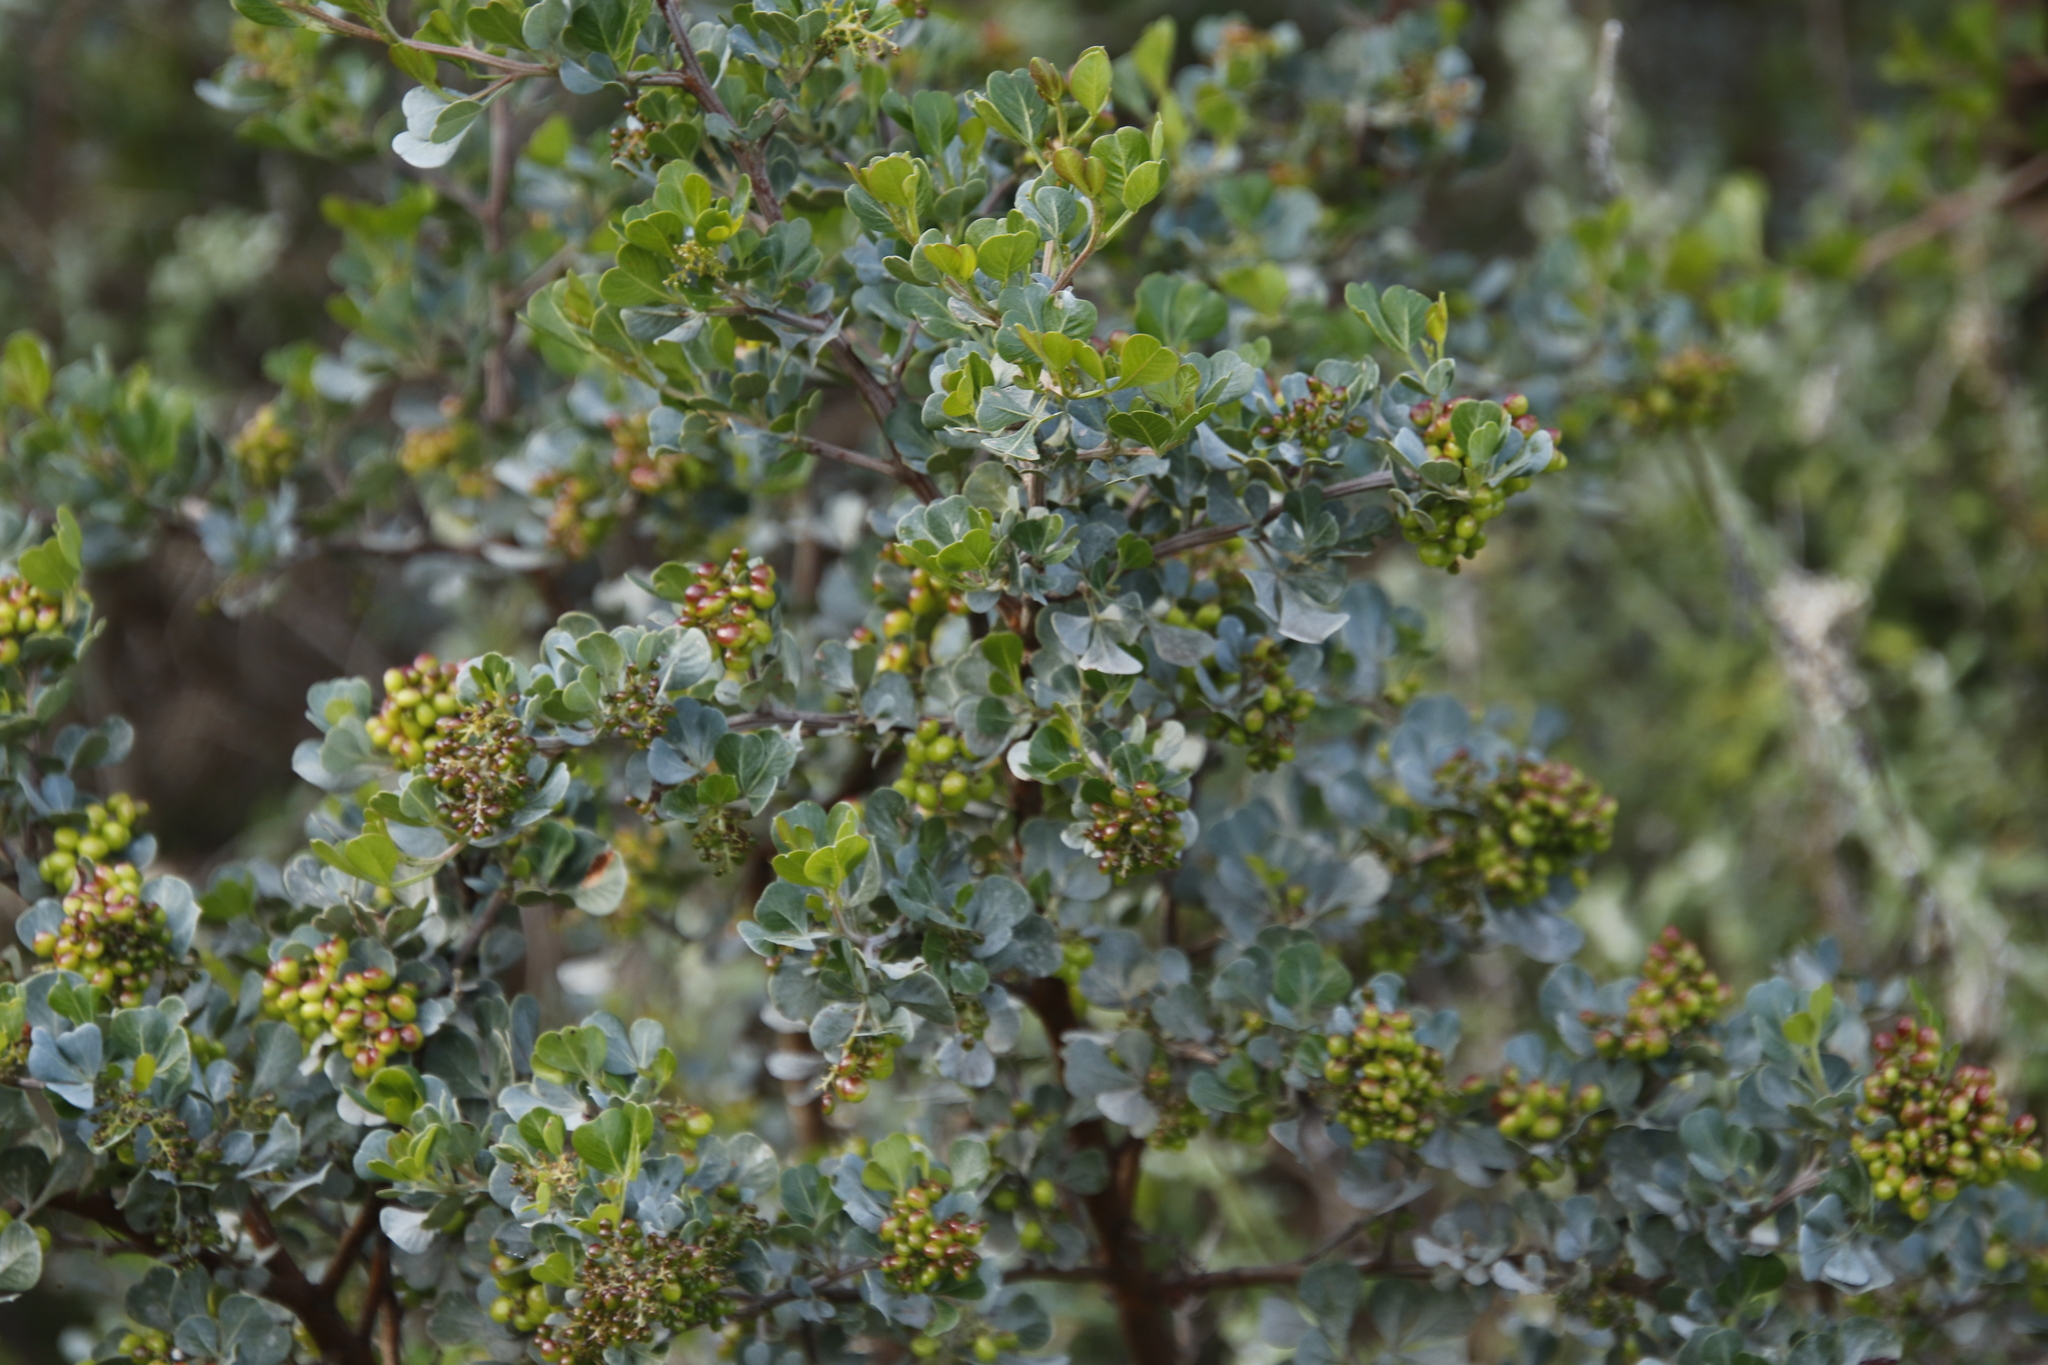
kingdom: Plantae
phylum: Tracheophyta
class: Magnoliopsida
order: Sapindales
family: Anacardiaceae
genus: Searsia
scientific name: Searsia glauca
